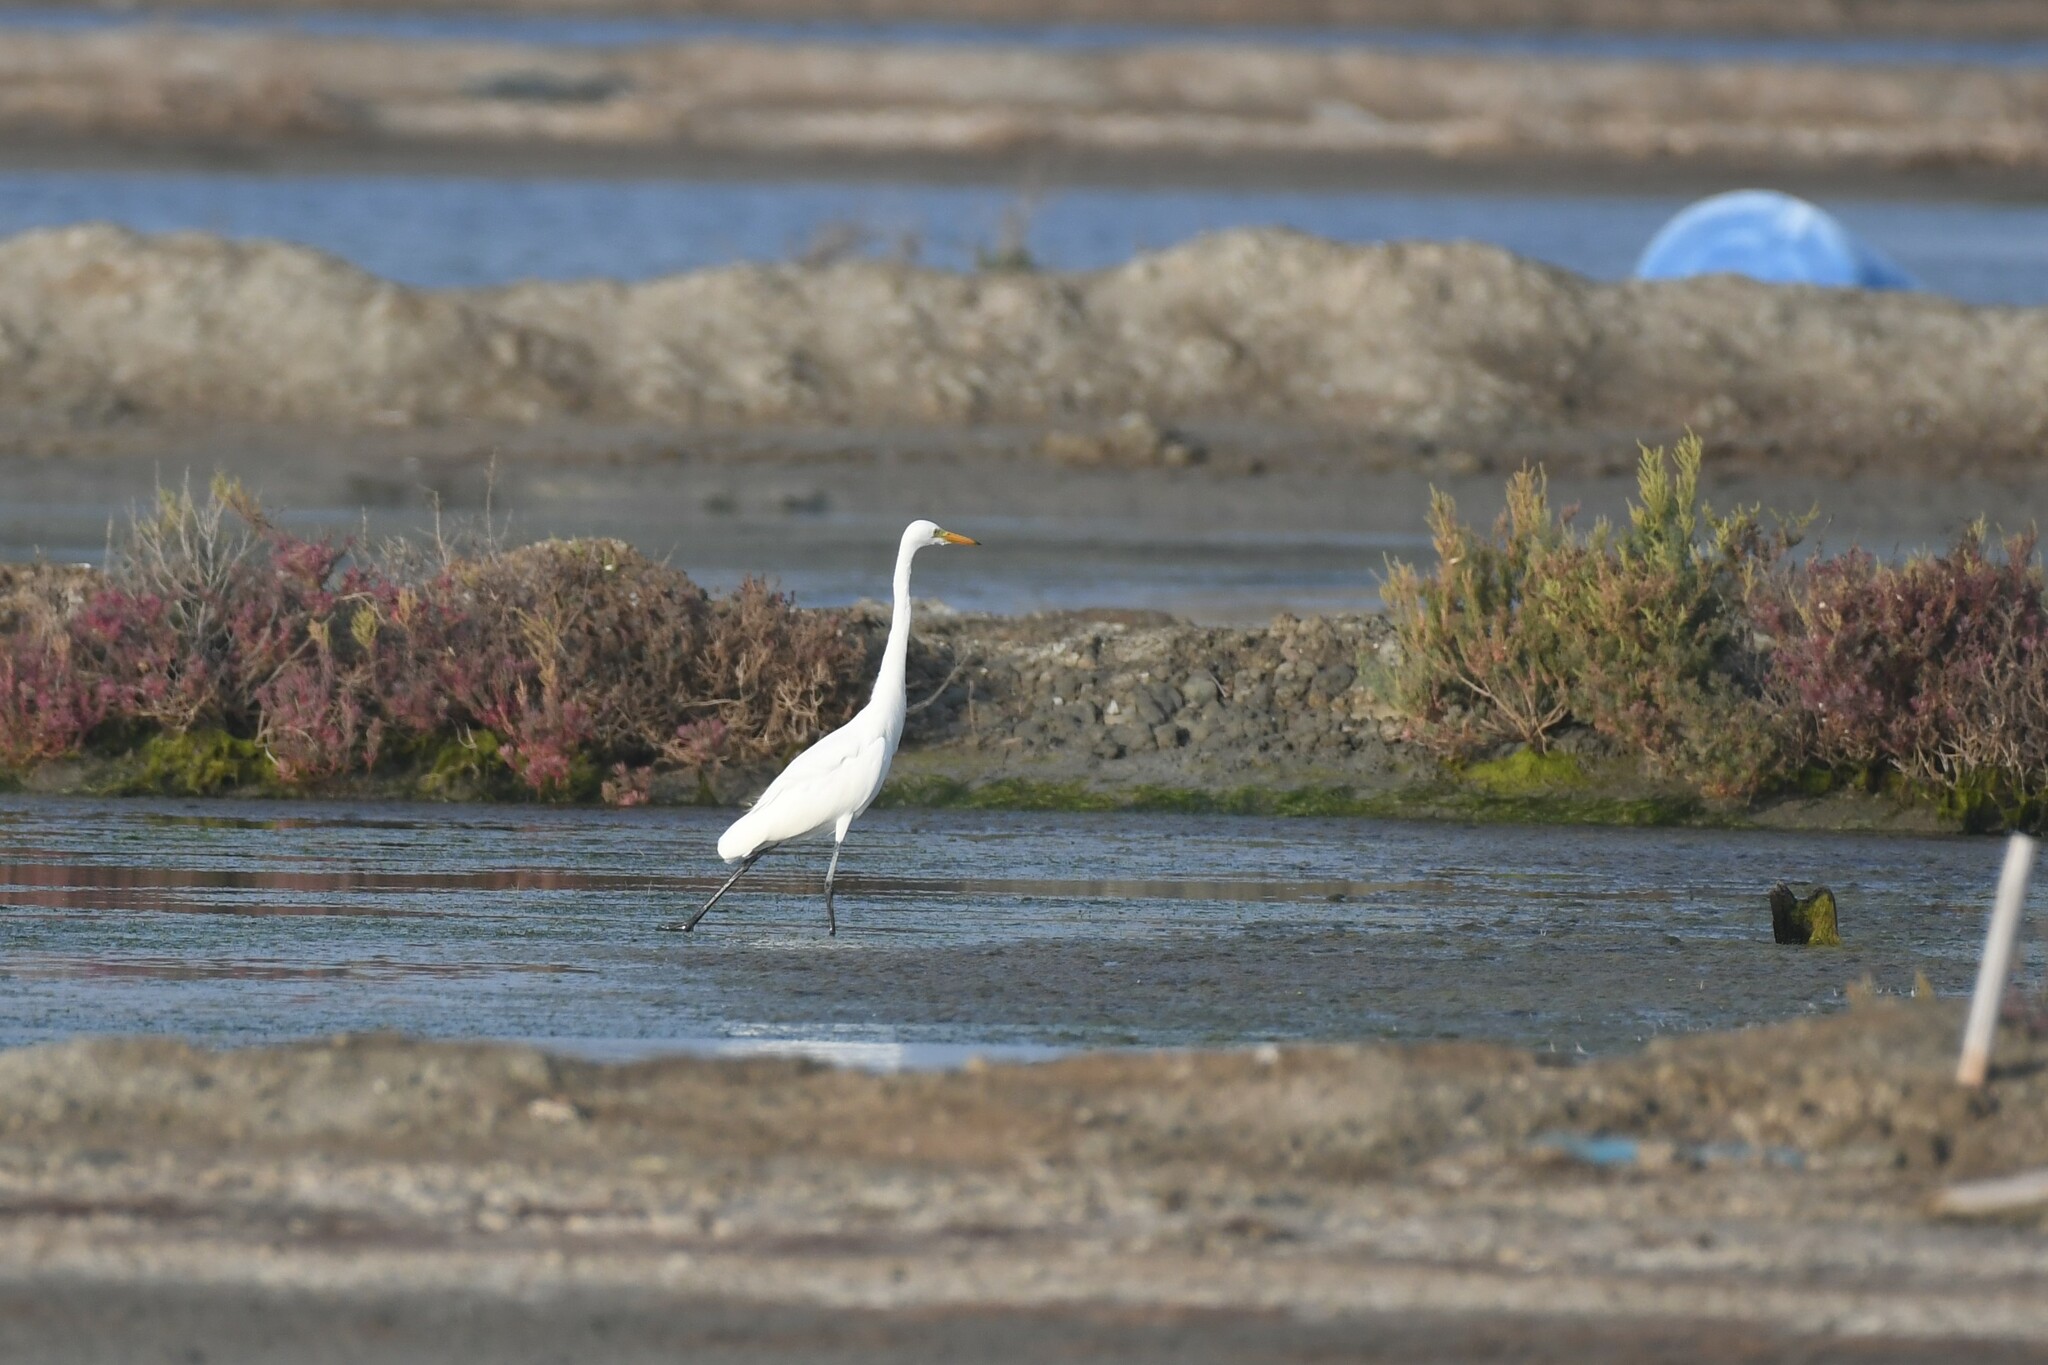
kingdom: Animalia
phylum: Chordata
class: Aves
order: Pelecaniformes
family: Ardeidae
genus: Egretta
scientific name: Egretta intermedia
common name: Intermediate egret
